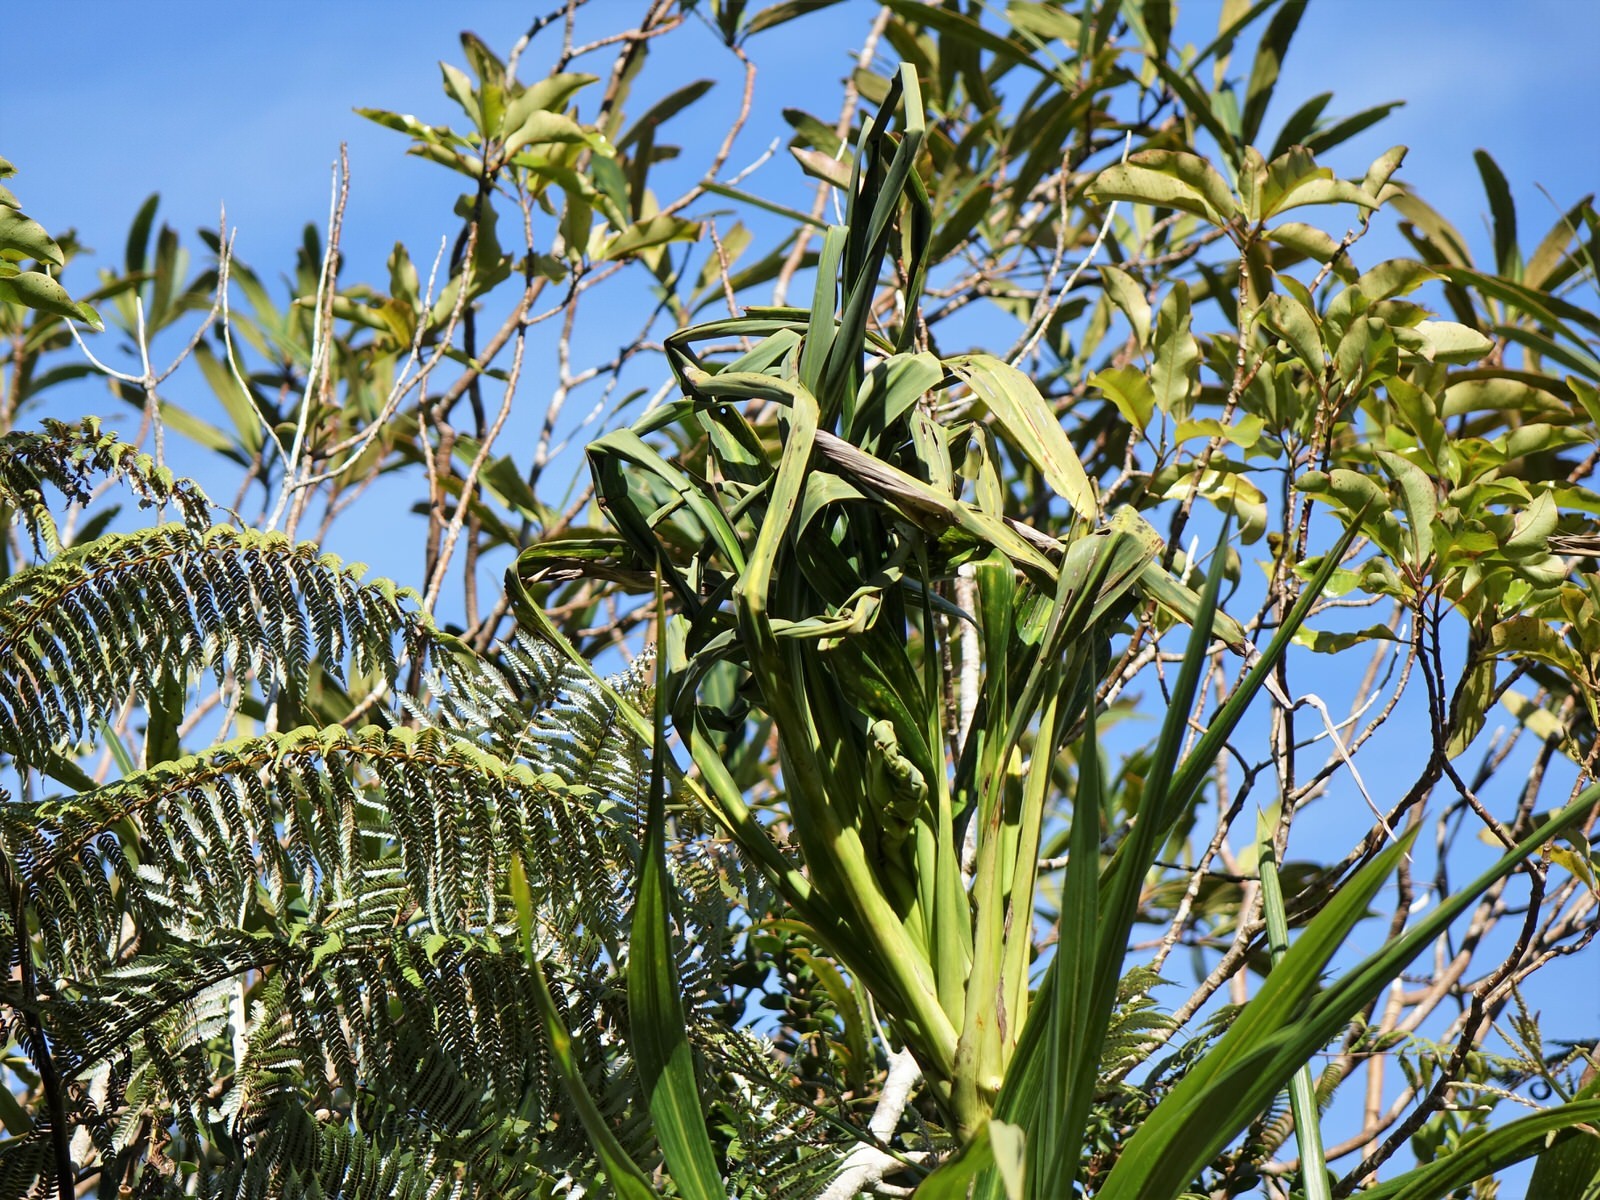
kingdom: Plantae
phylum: Tracheophyta
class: Liliopsida
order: Asparagales
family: Asparagaceae
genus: Cordyline
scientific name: Cordyline banksii
